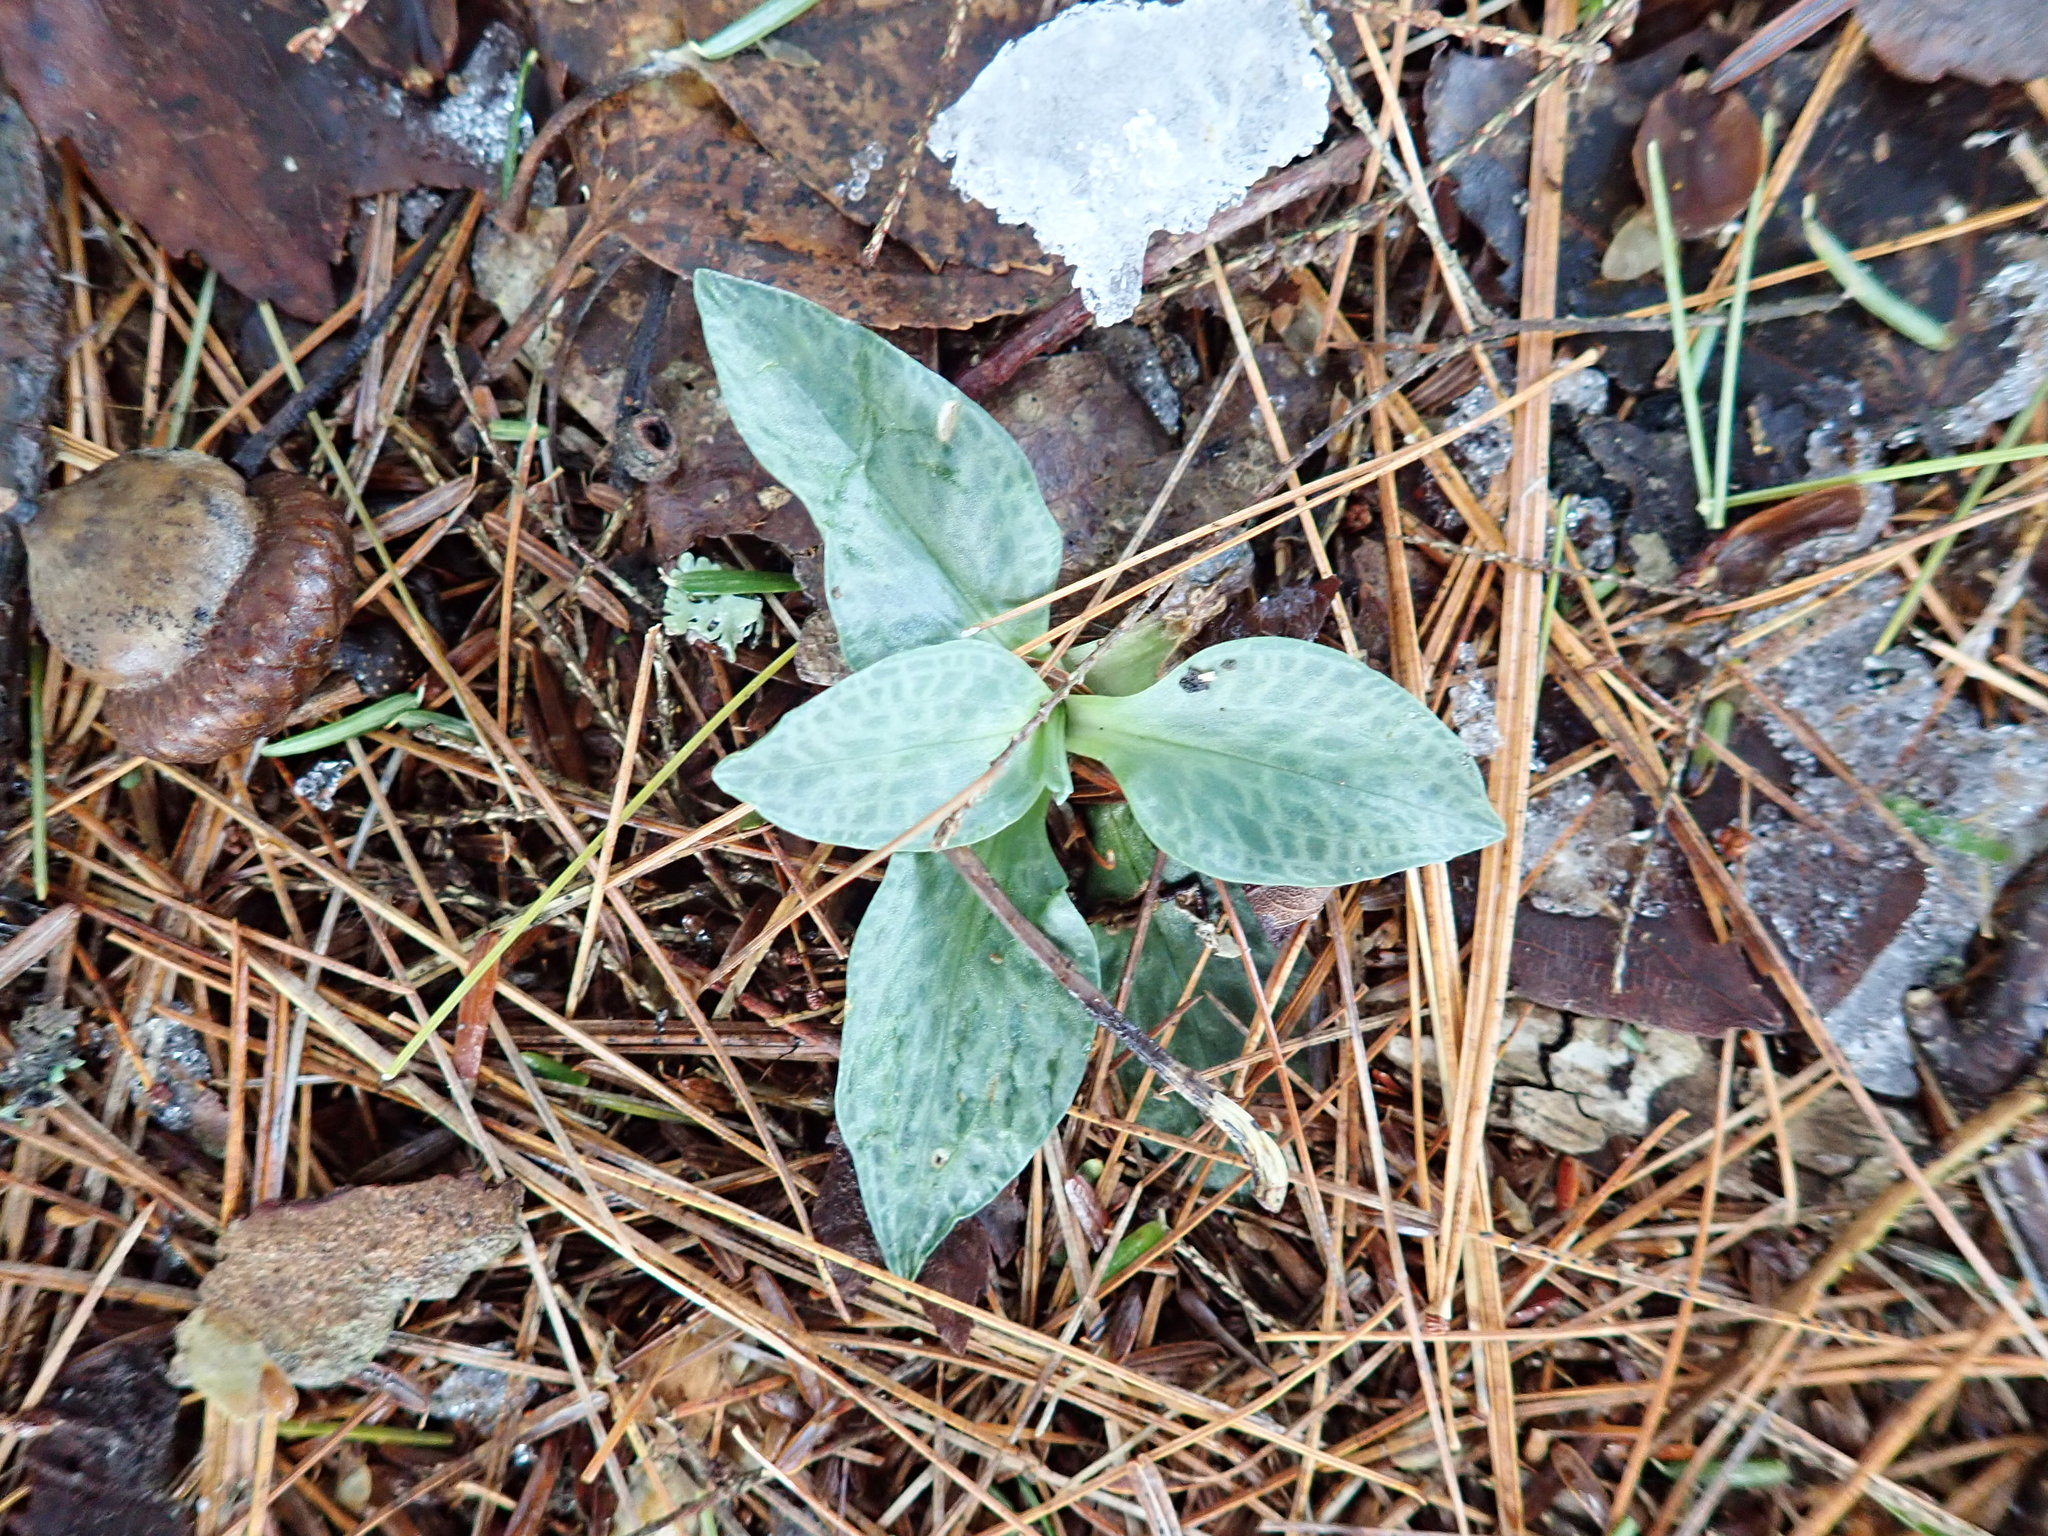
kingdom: Plantae
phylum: Tracheophyta
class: Liliopsida
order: Asparagales
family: Orchidaceae
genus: Goodyera
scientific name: Goodyera tesselata
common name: Checkered rattlesnake-plantain
